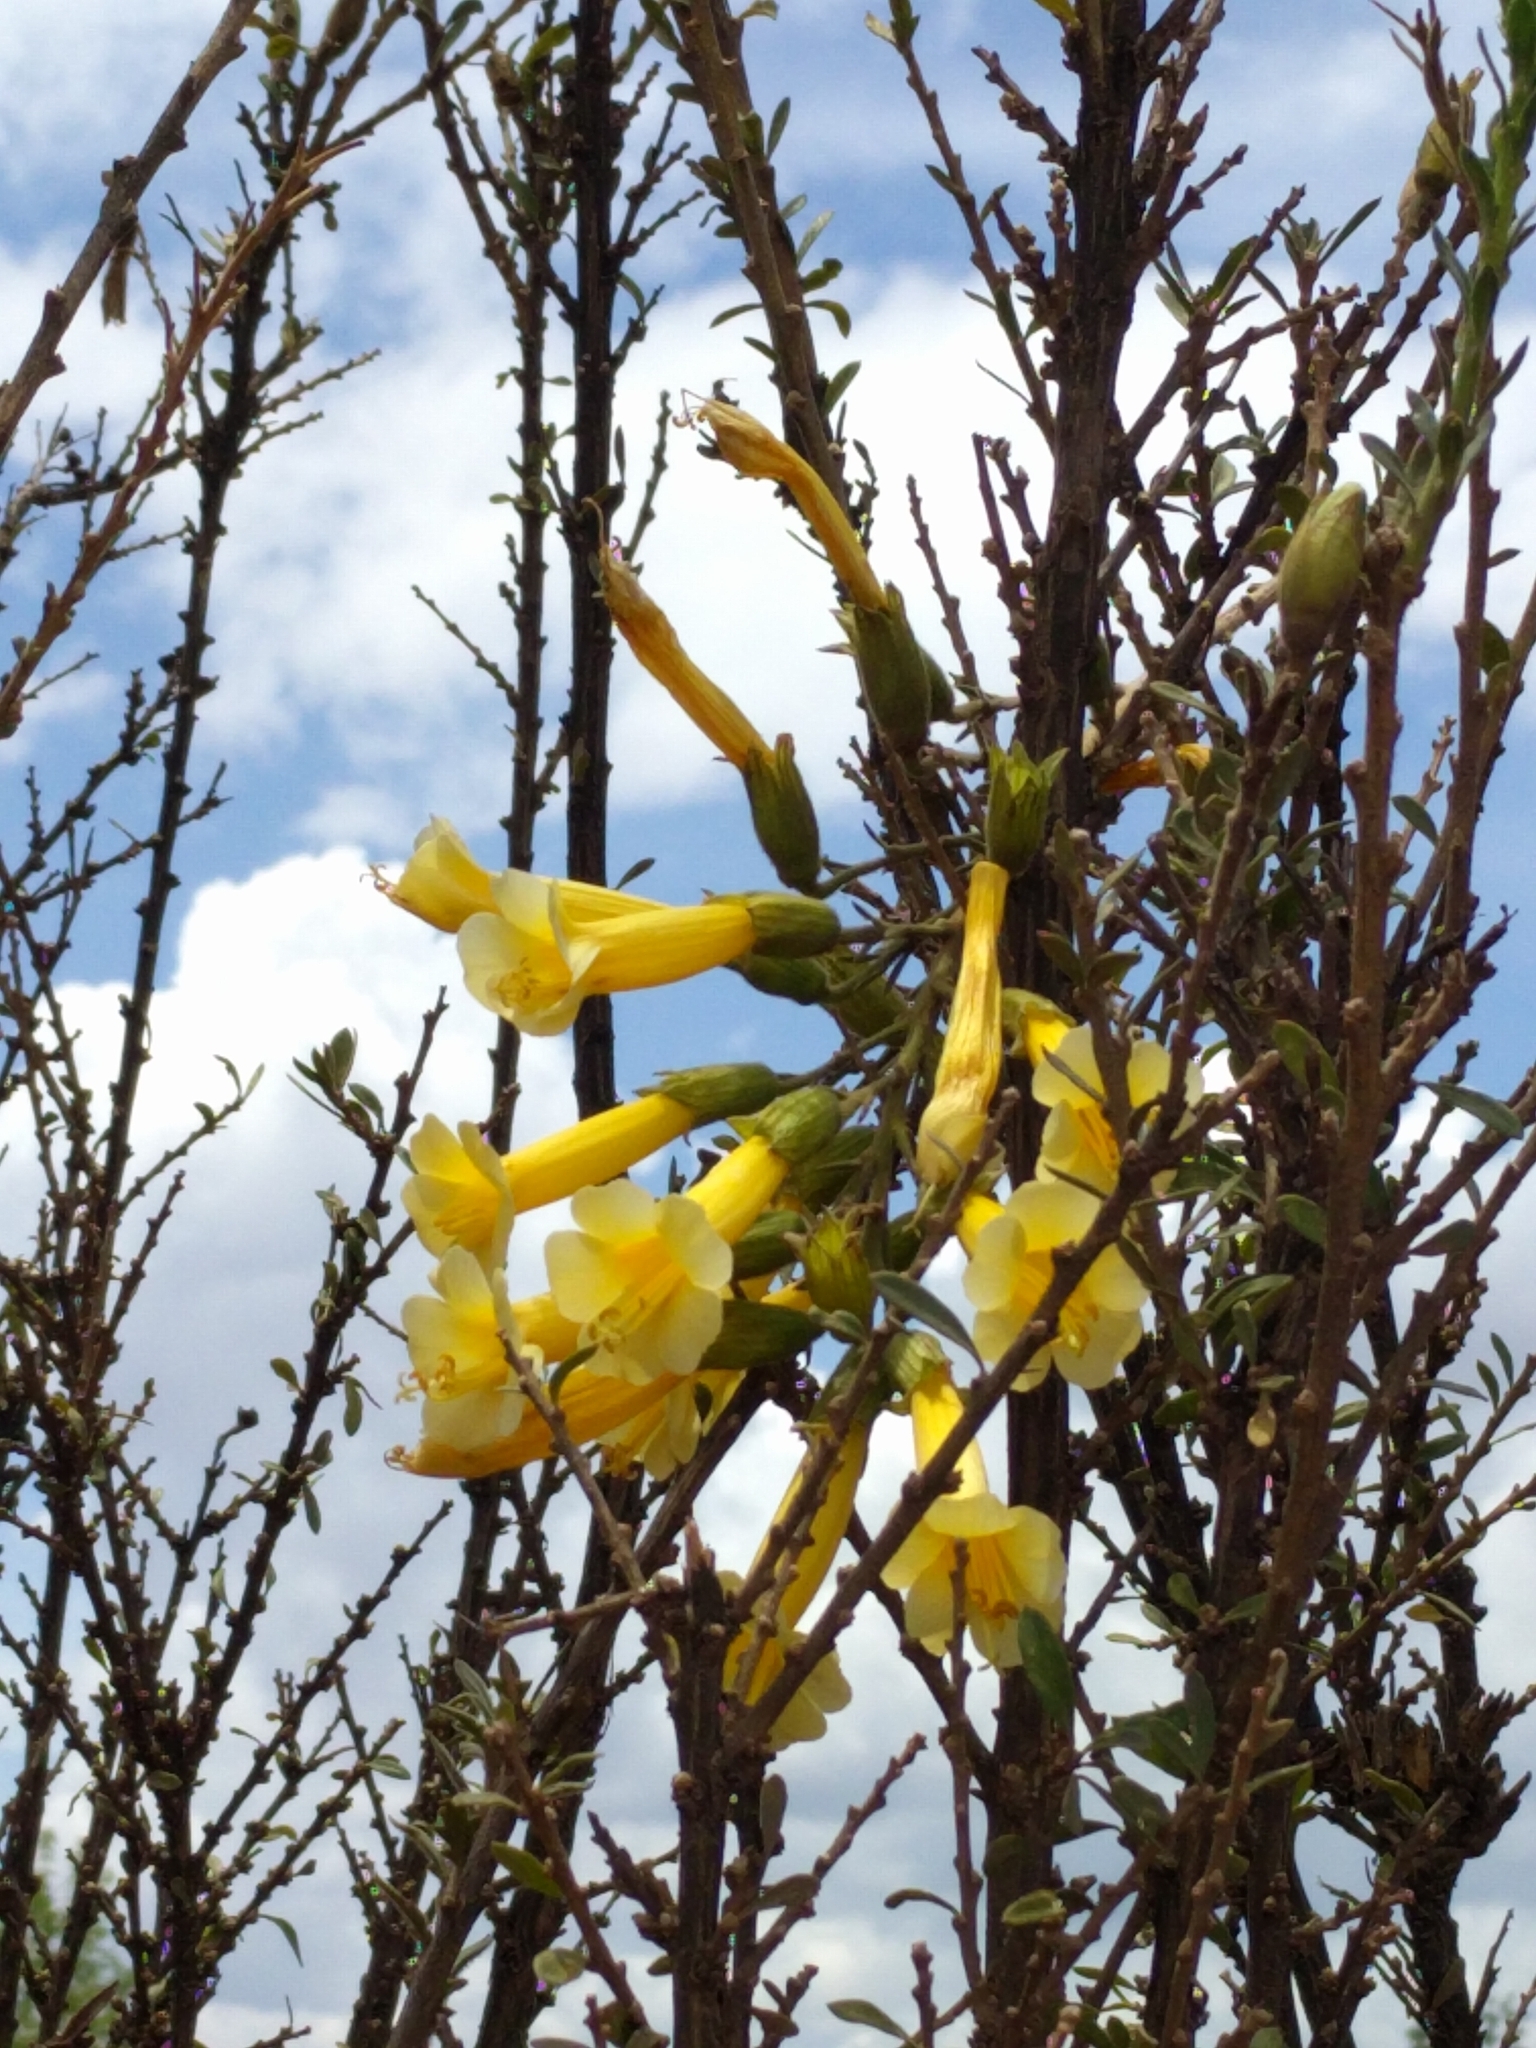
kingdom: Plantae
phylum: Tracheophyta
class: Magnoliopsida
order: Ericales
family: Polemoniaceae
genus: Cantua
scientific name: Cantua buxifolia
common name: Sacred-flower-of-the-incas
